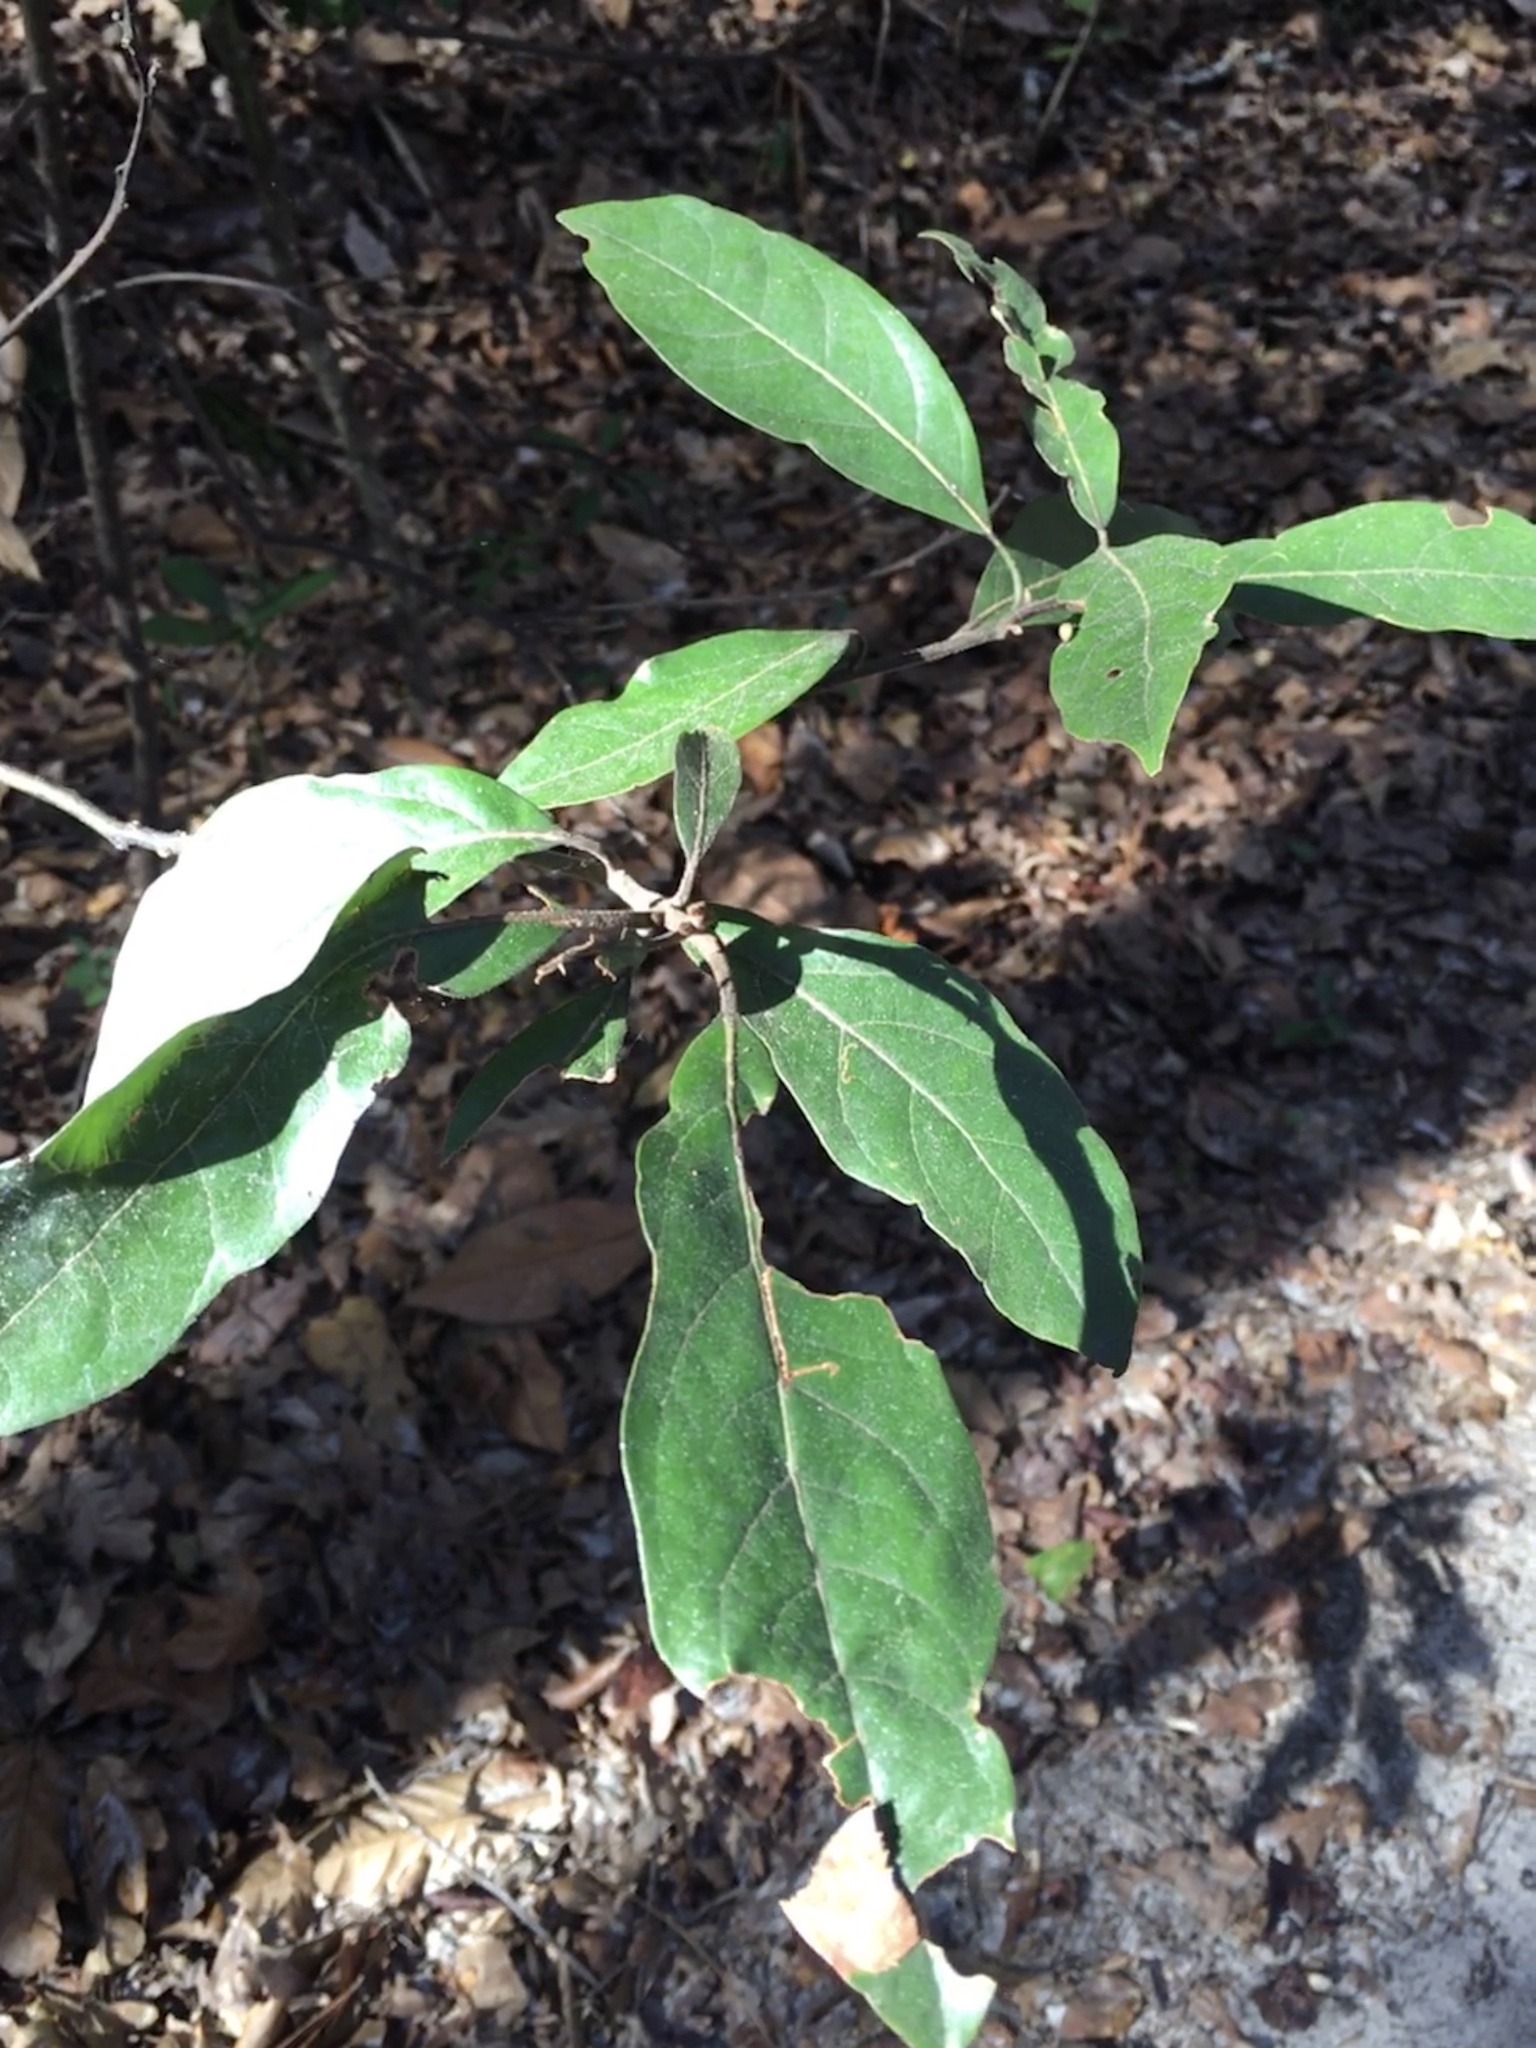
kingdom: Plantae
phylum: Tracheophyta
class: Magnoliopsida
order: Laurales
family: Lauraceae
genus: Persea
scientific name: Persea palustris
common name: Swampbay
